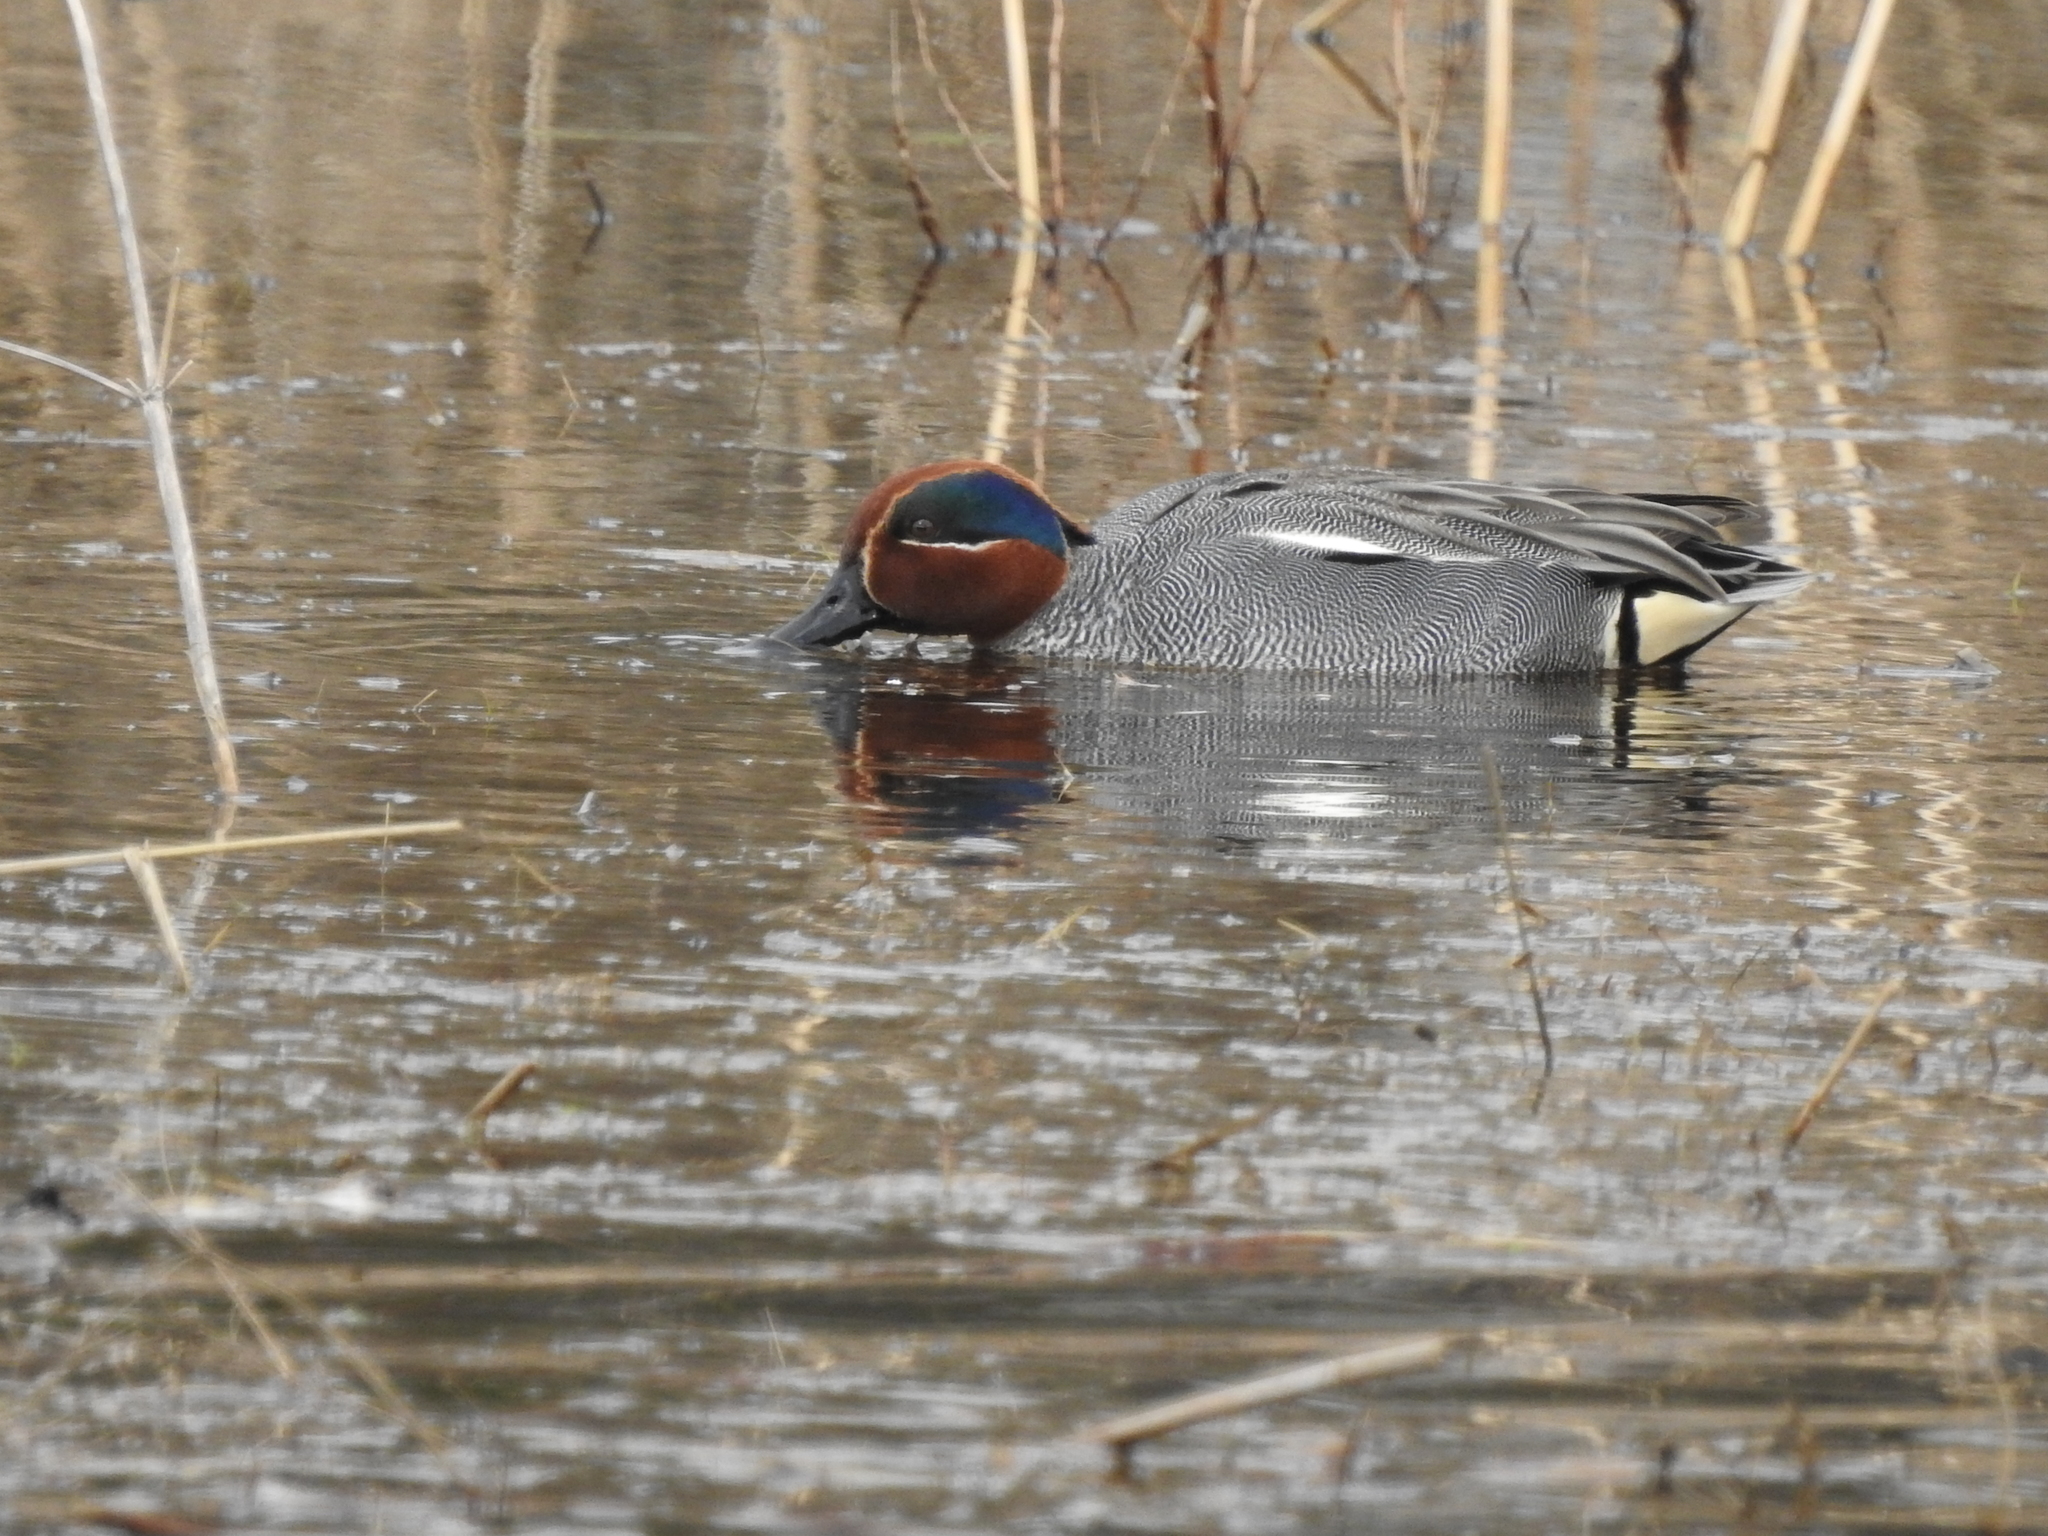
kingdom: Animalia
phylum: Chordata
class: Aves
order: Anseriformes
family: Anatidae
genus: Anas
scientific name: Anas crecca
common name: Eurasian teal
